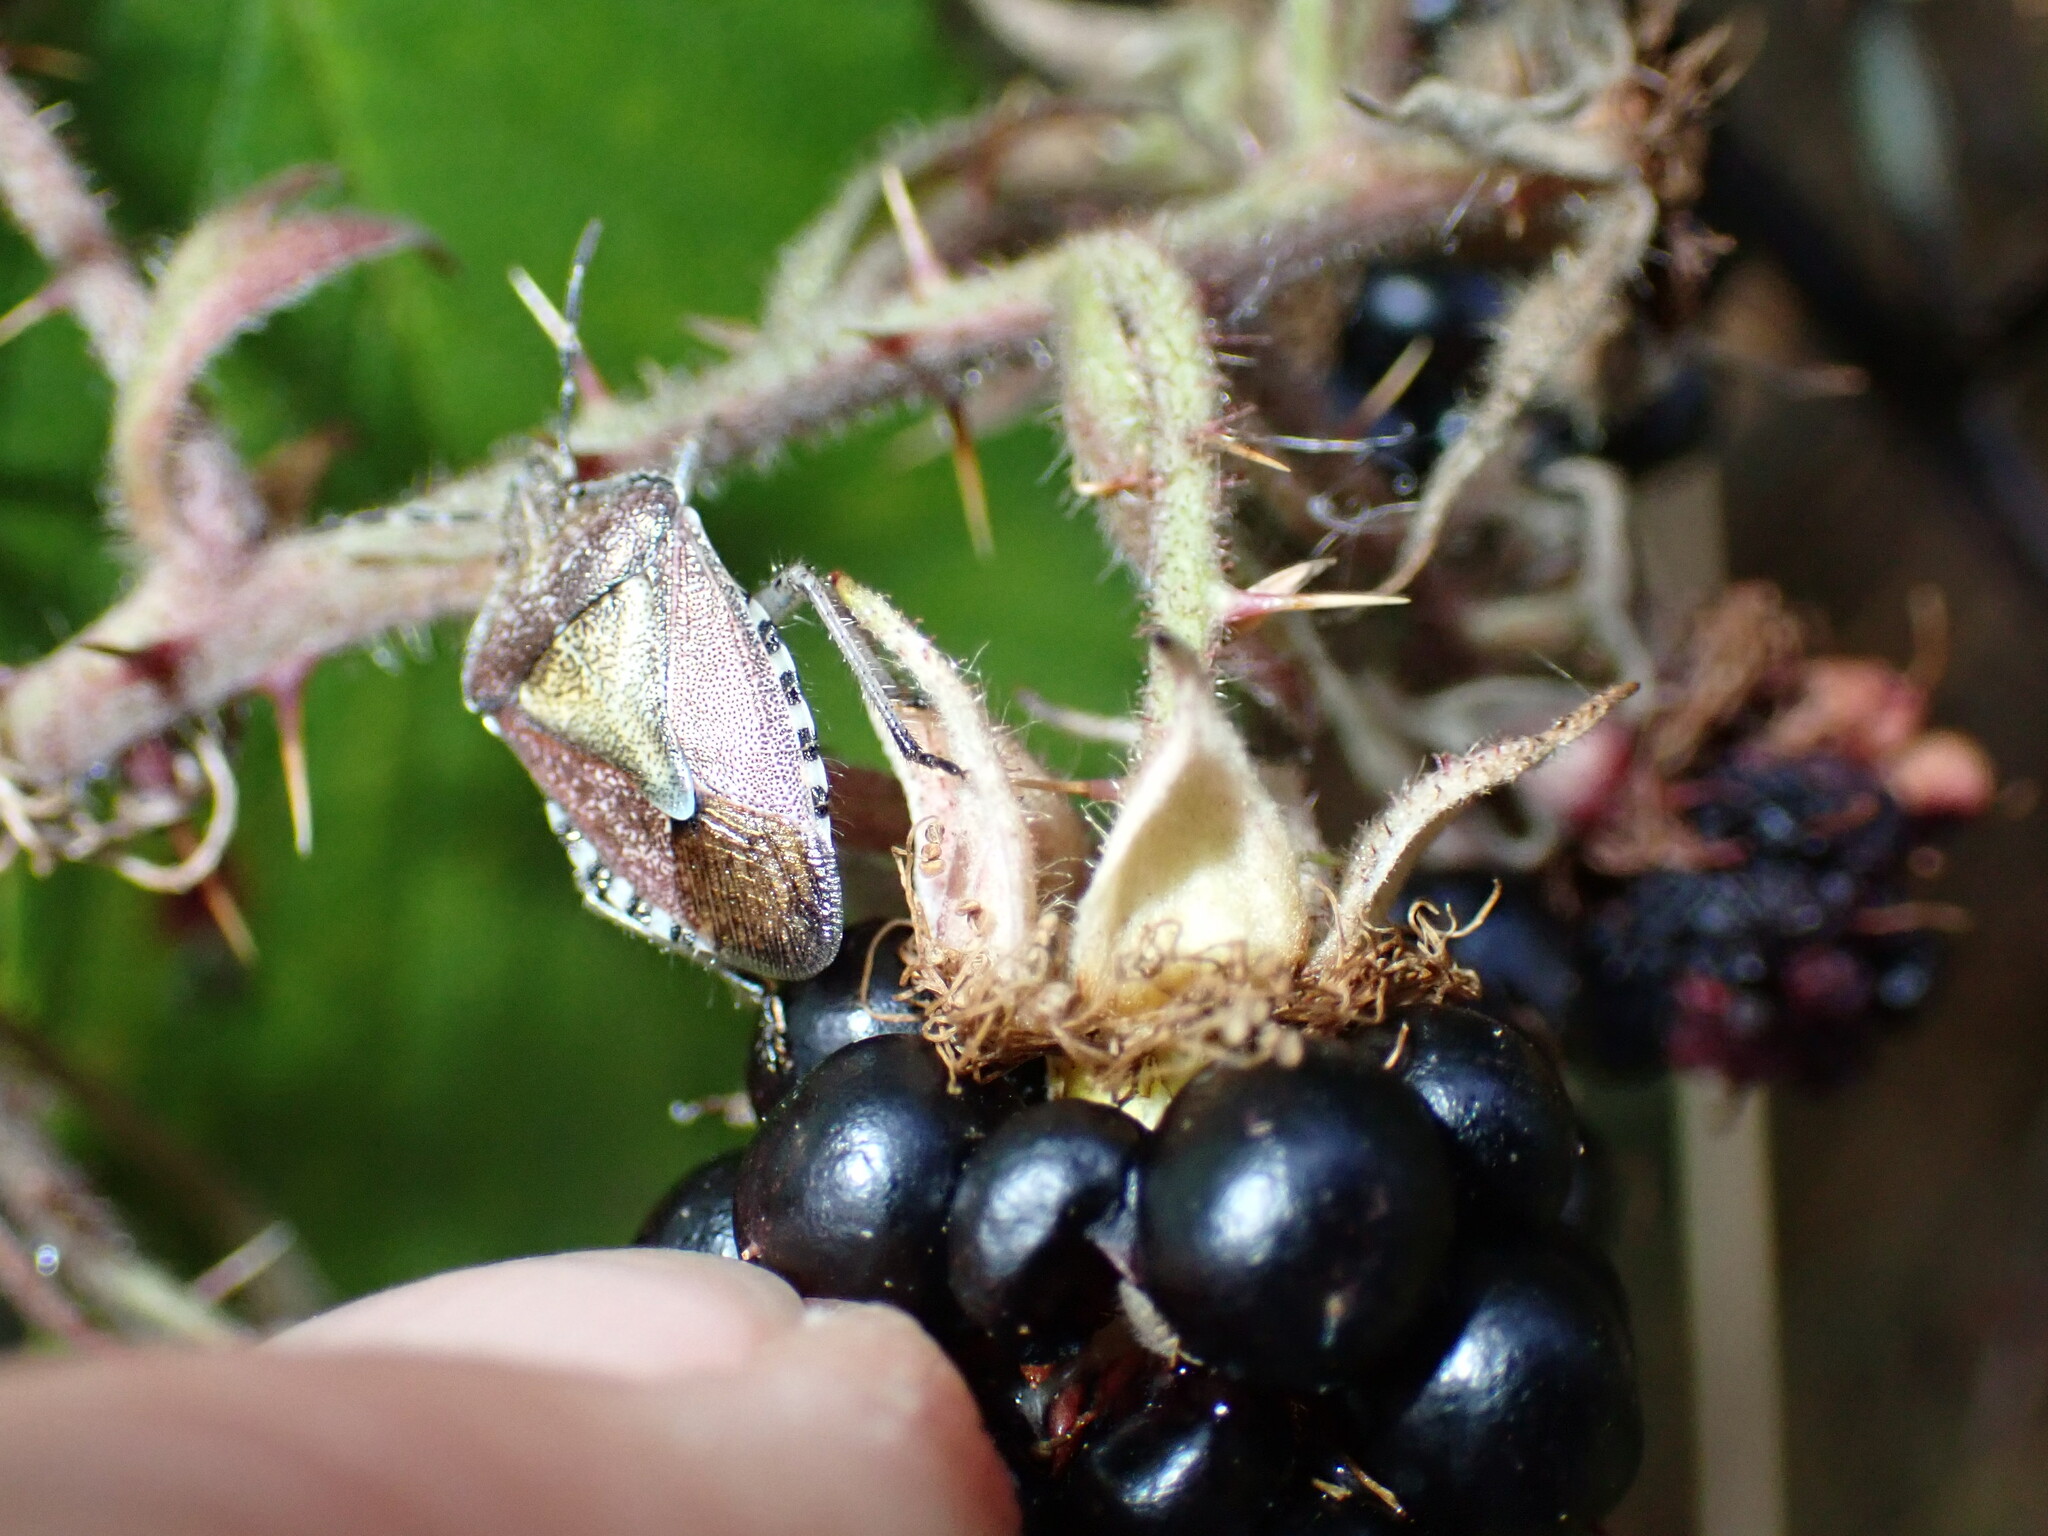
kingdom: Animalia
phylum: Arthropoda
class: Insecta
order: Hemiptera
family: Pentatomidae
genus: Dolycoris
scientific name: Dolycoris baccarum
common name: Sloe bug
